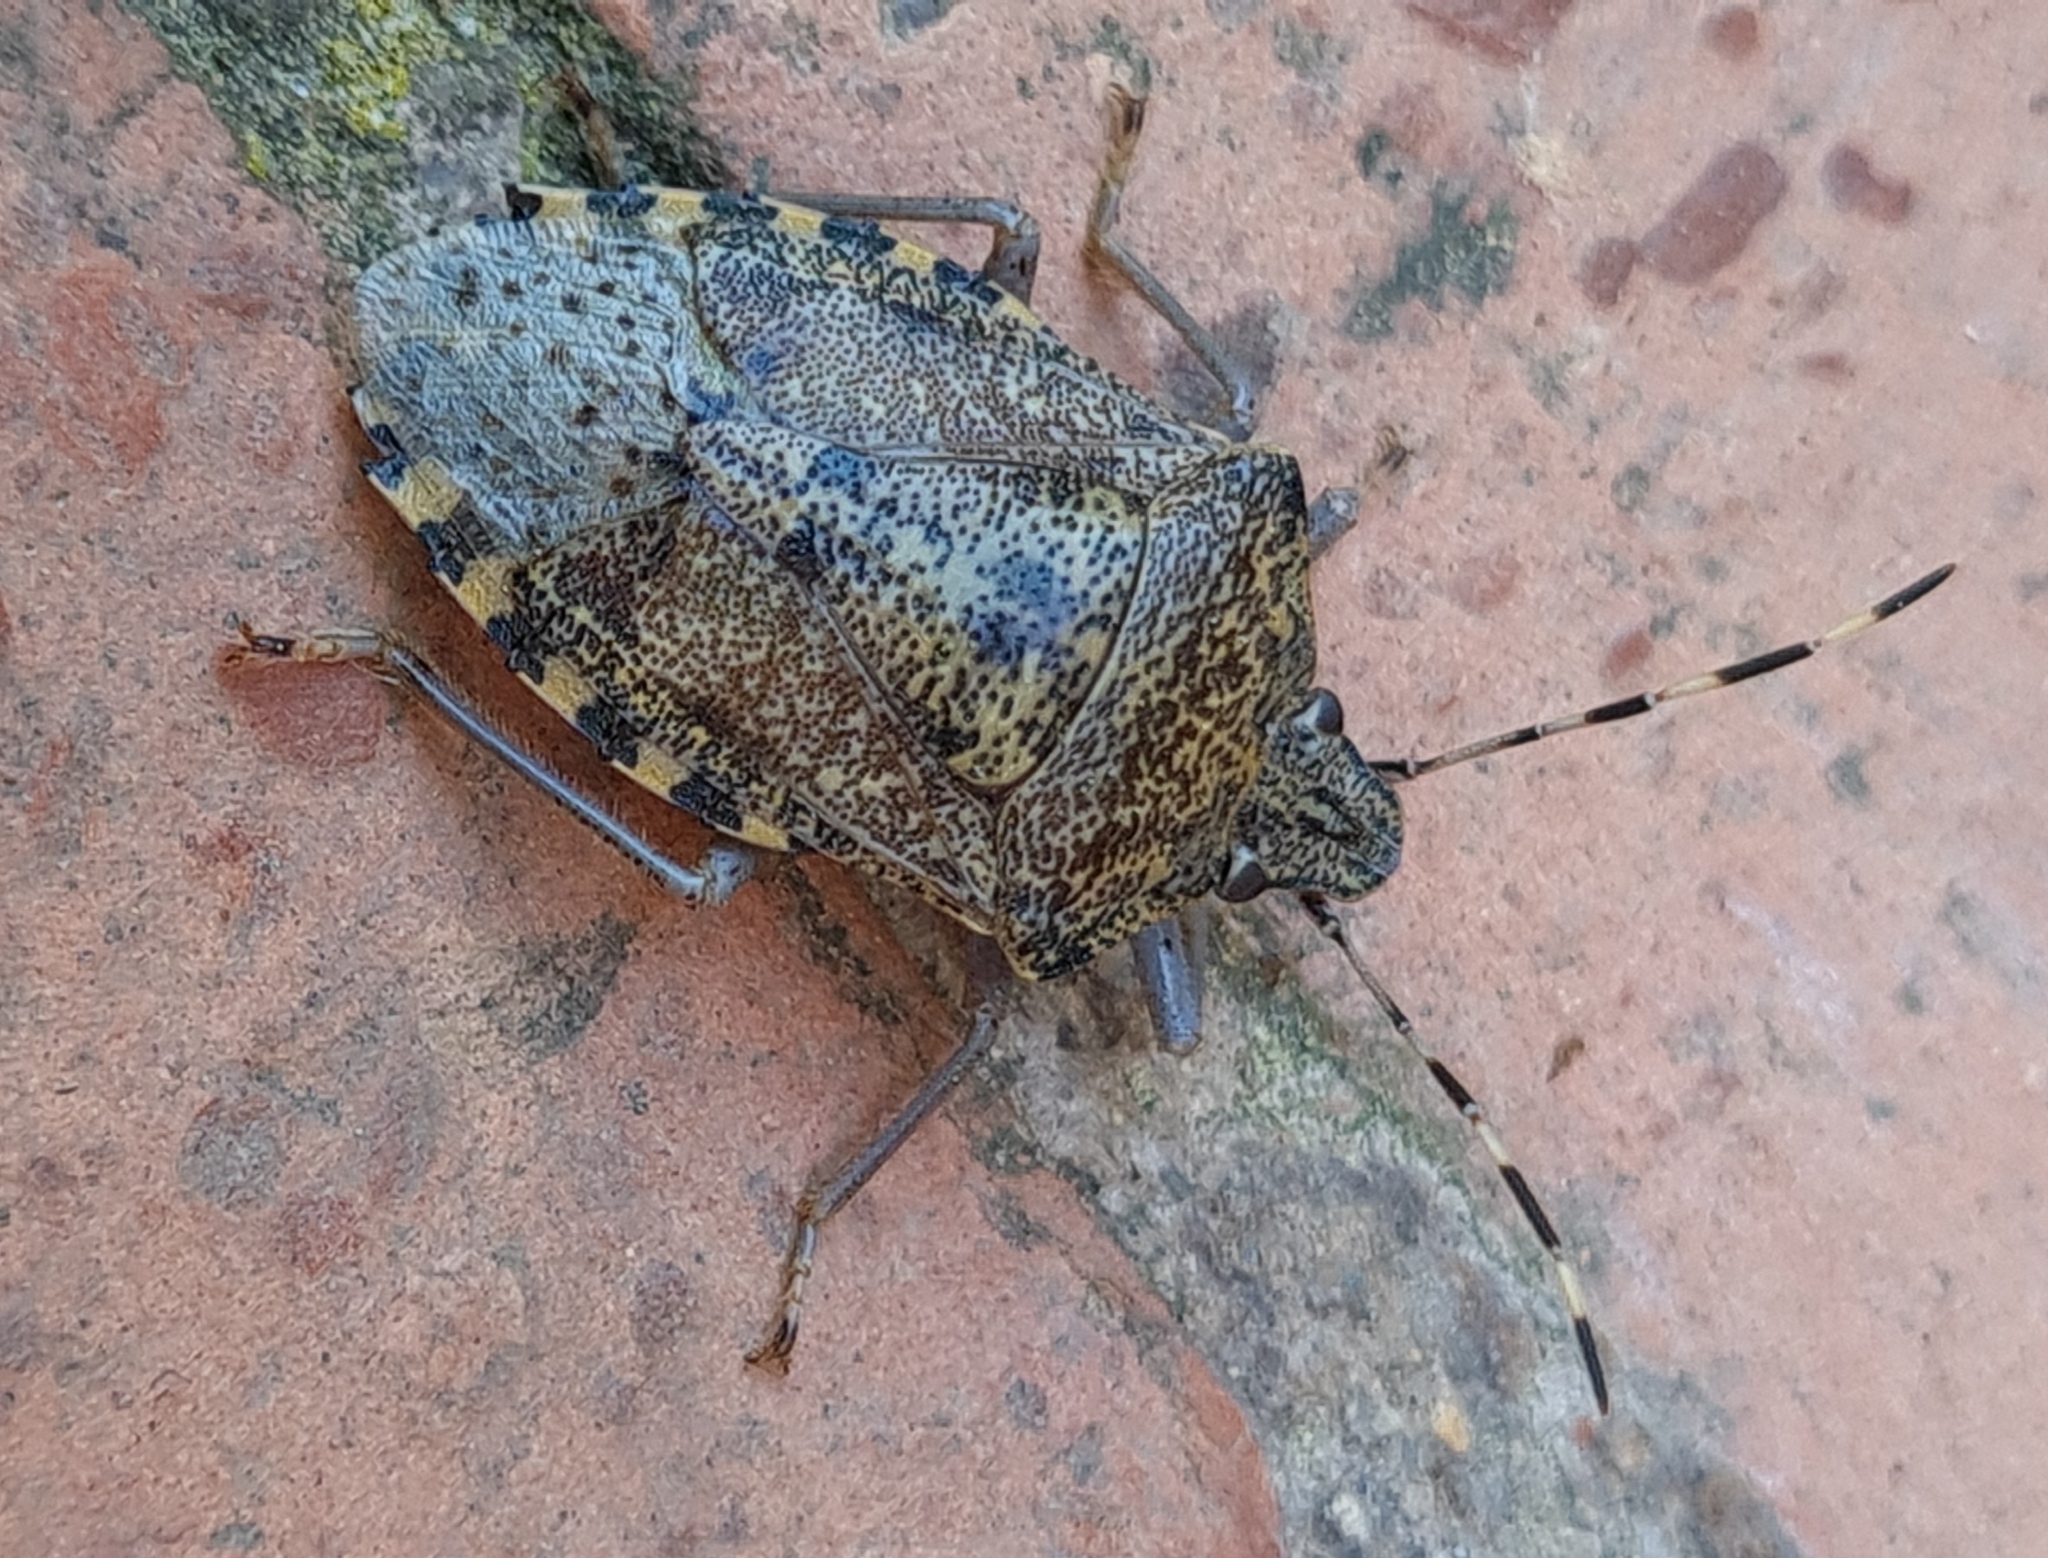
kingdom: Animalia
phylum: Arthropoda
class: Insecta
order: Hemiptera
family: Pentatomidae
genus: Rhaphigaster
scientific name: Rhaphigaster nebulosa
